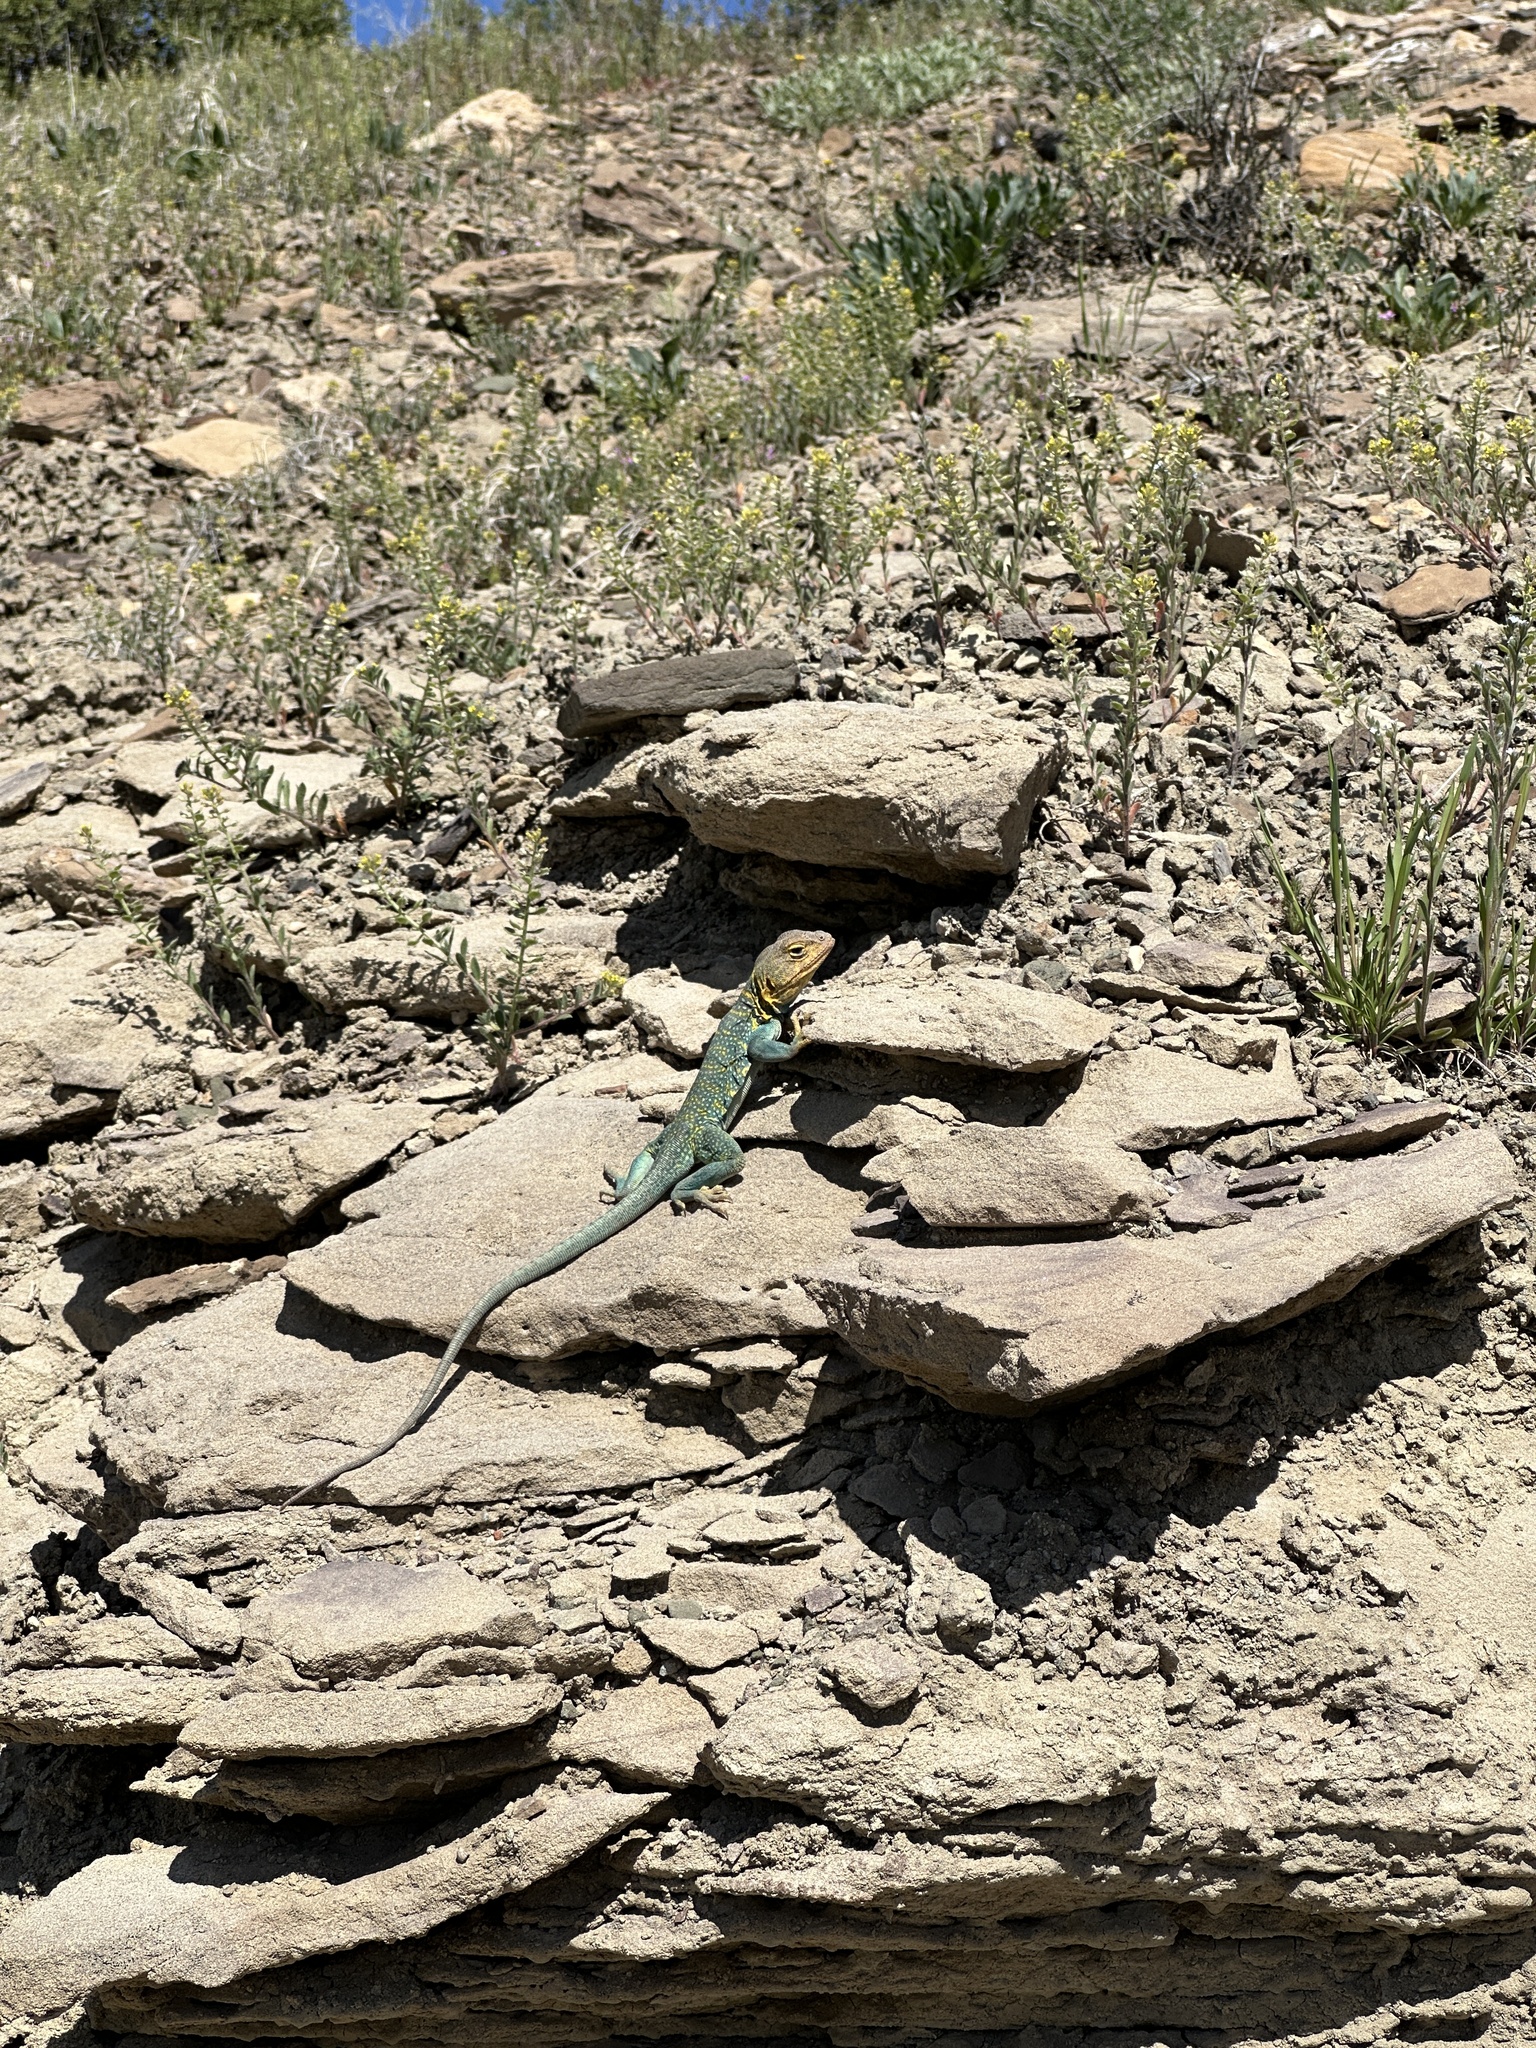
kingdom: Animalia
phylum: Chordata
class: Squamata
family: Crotaphytidae
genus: Crotaphytus
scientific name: Crotaphytus collaris
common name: Collared lizard
